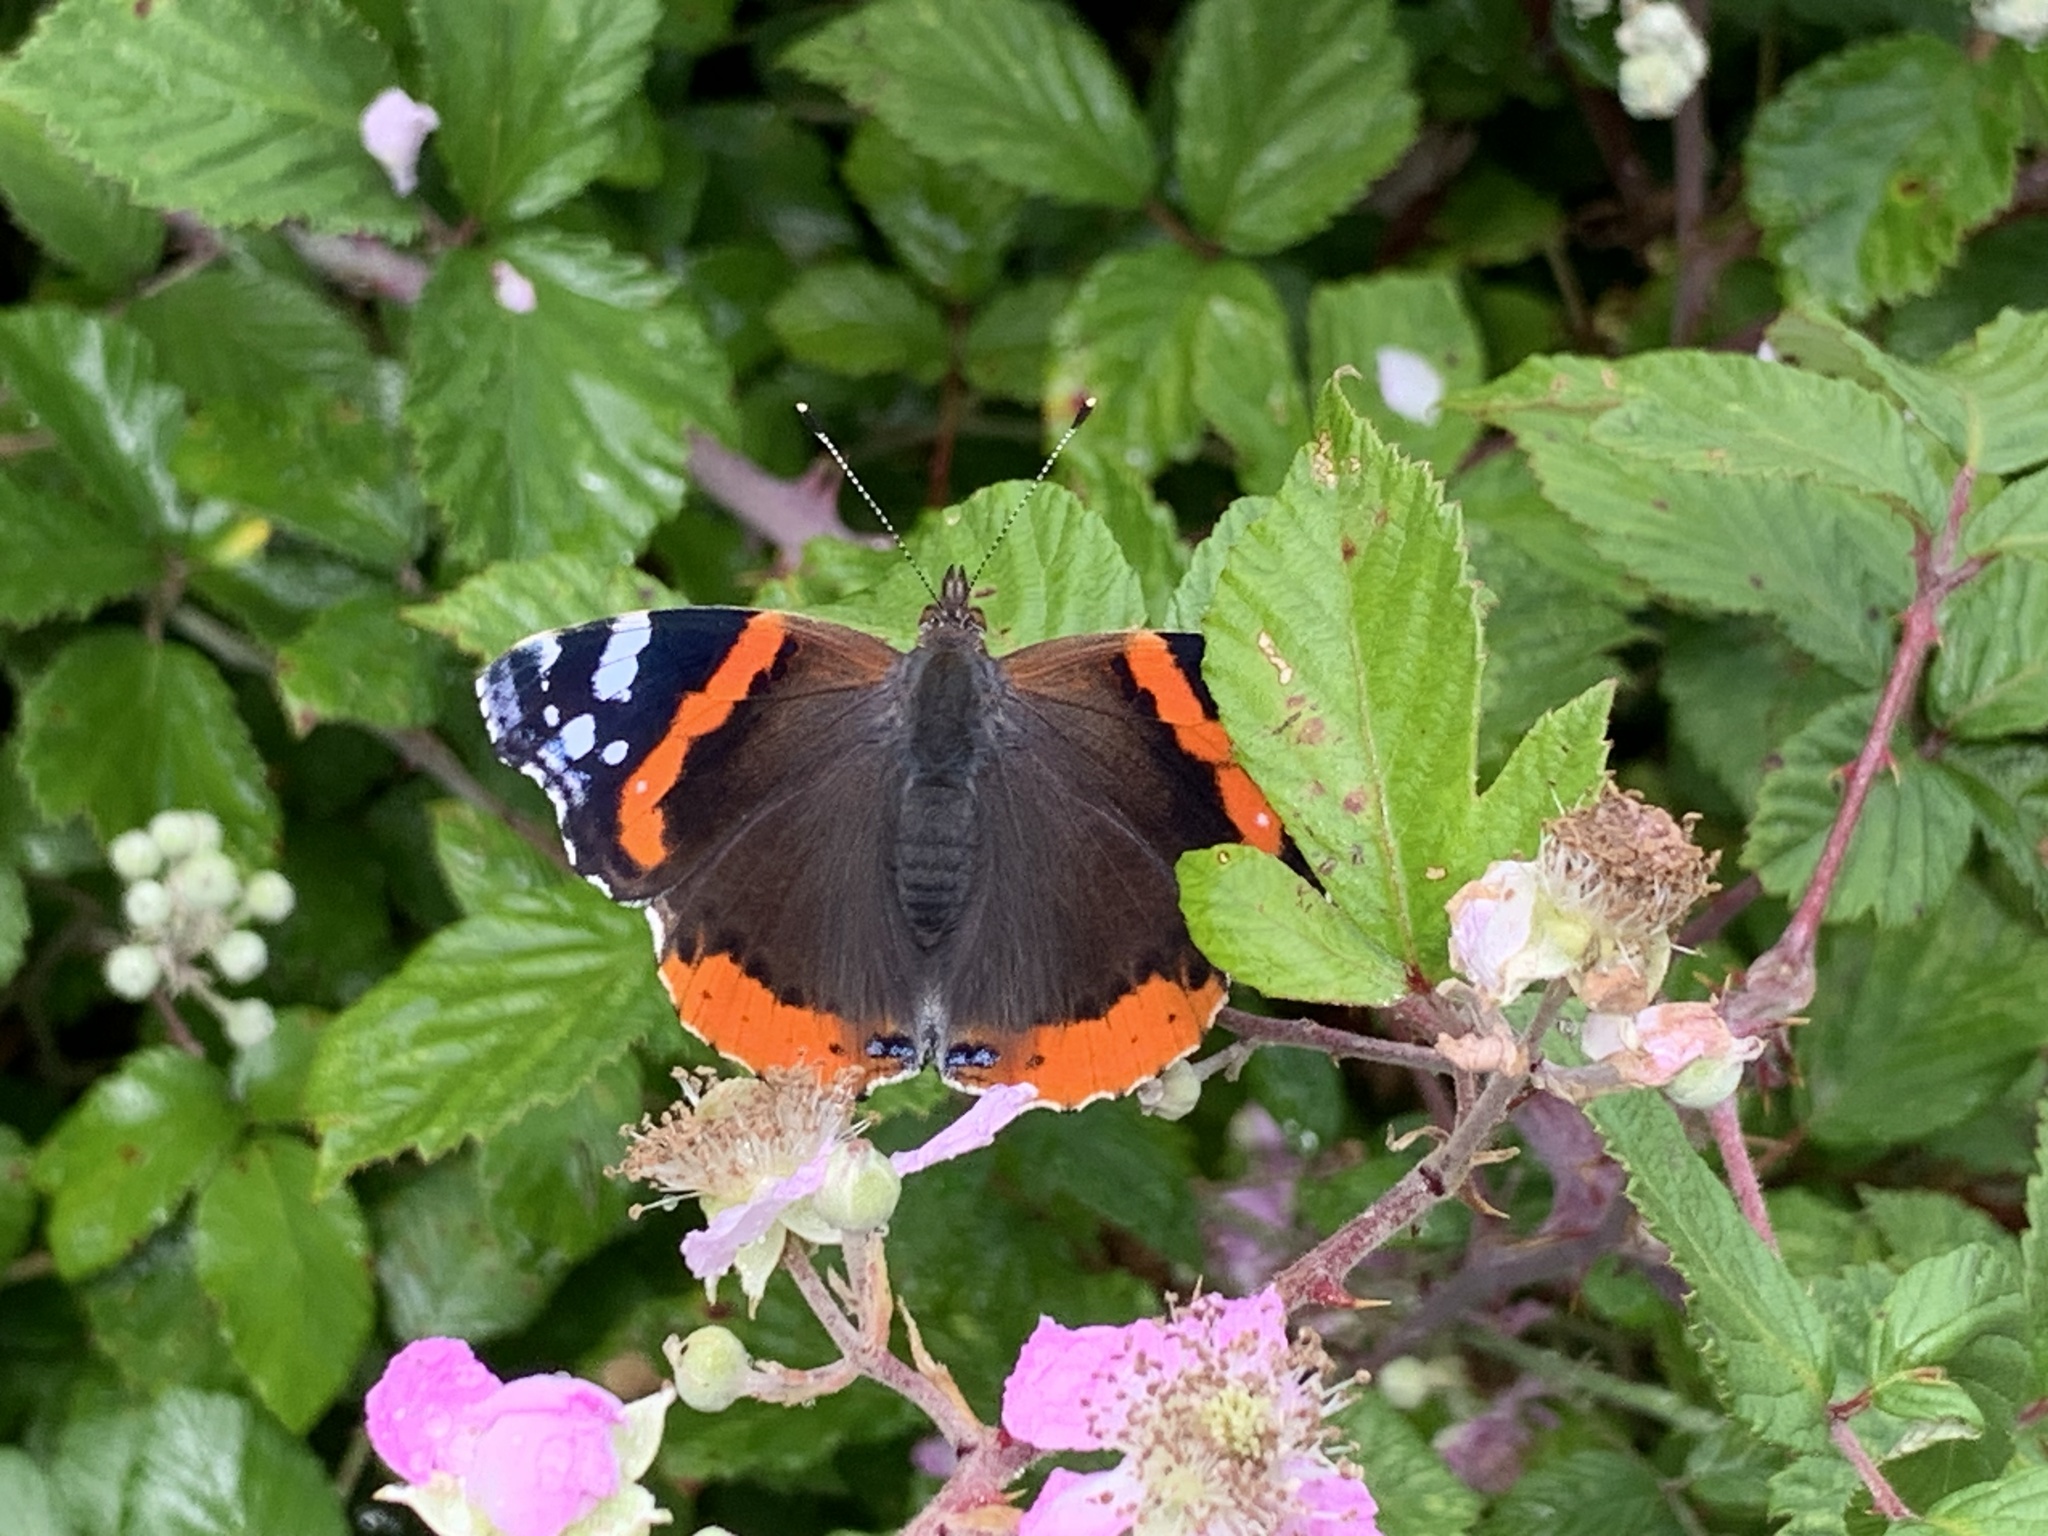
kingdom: Animalia
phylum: Arthropoda
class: Insecta
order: Lepidoptera
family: Nymphalidae
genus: Vanessa
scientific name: Vanessa atalanta
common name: Red admiral
